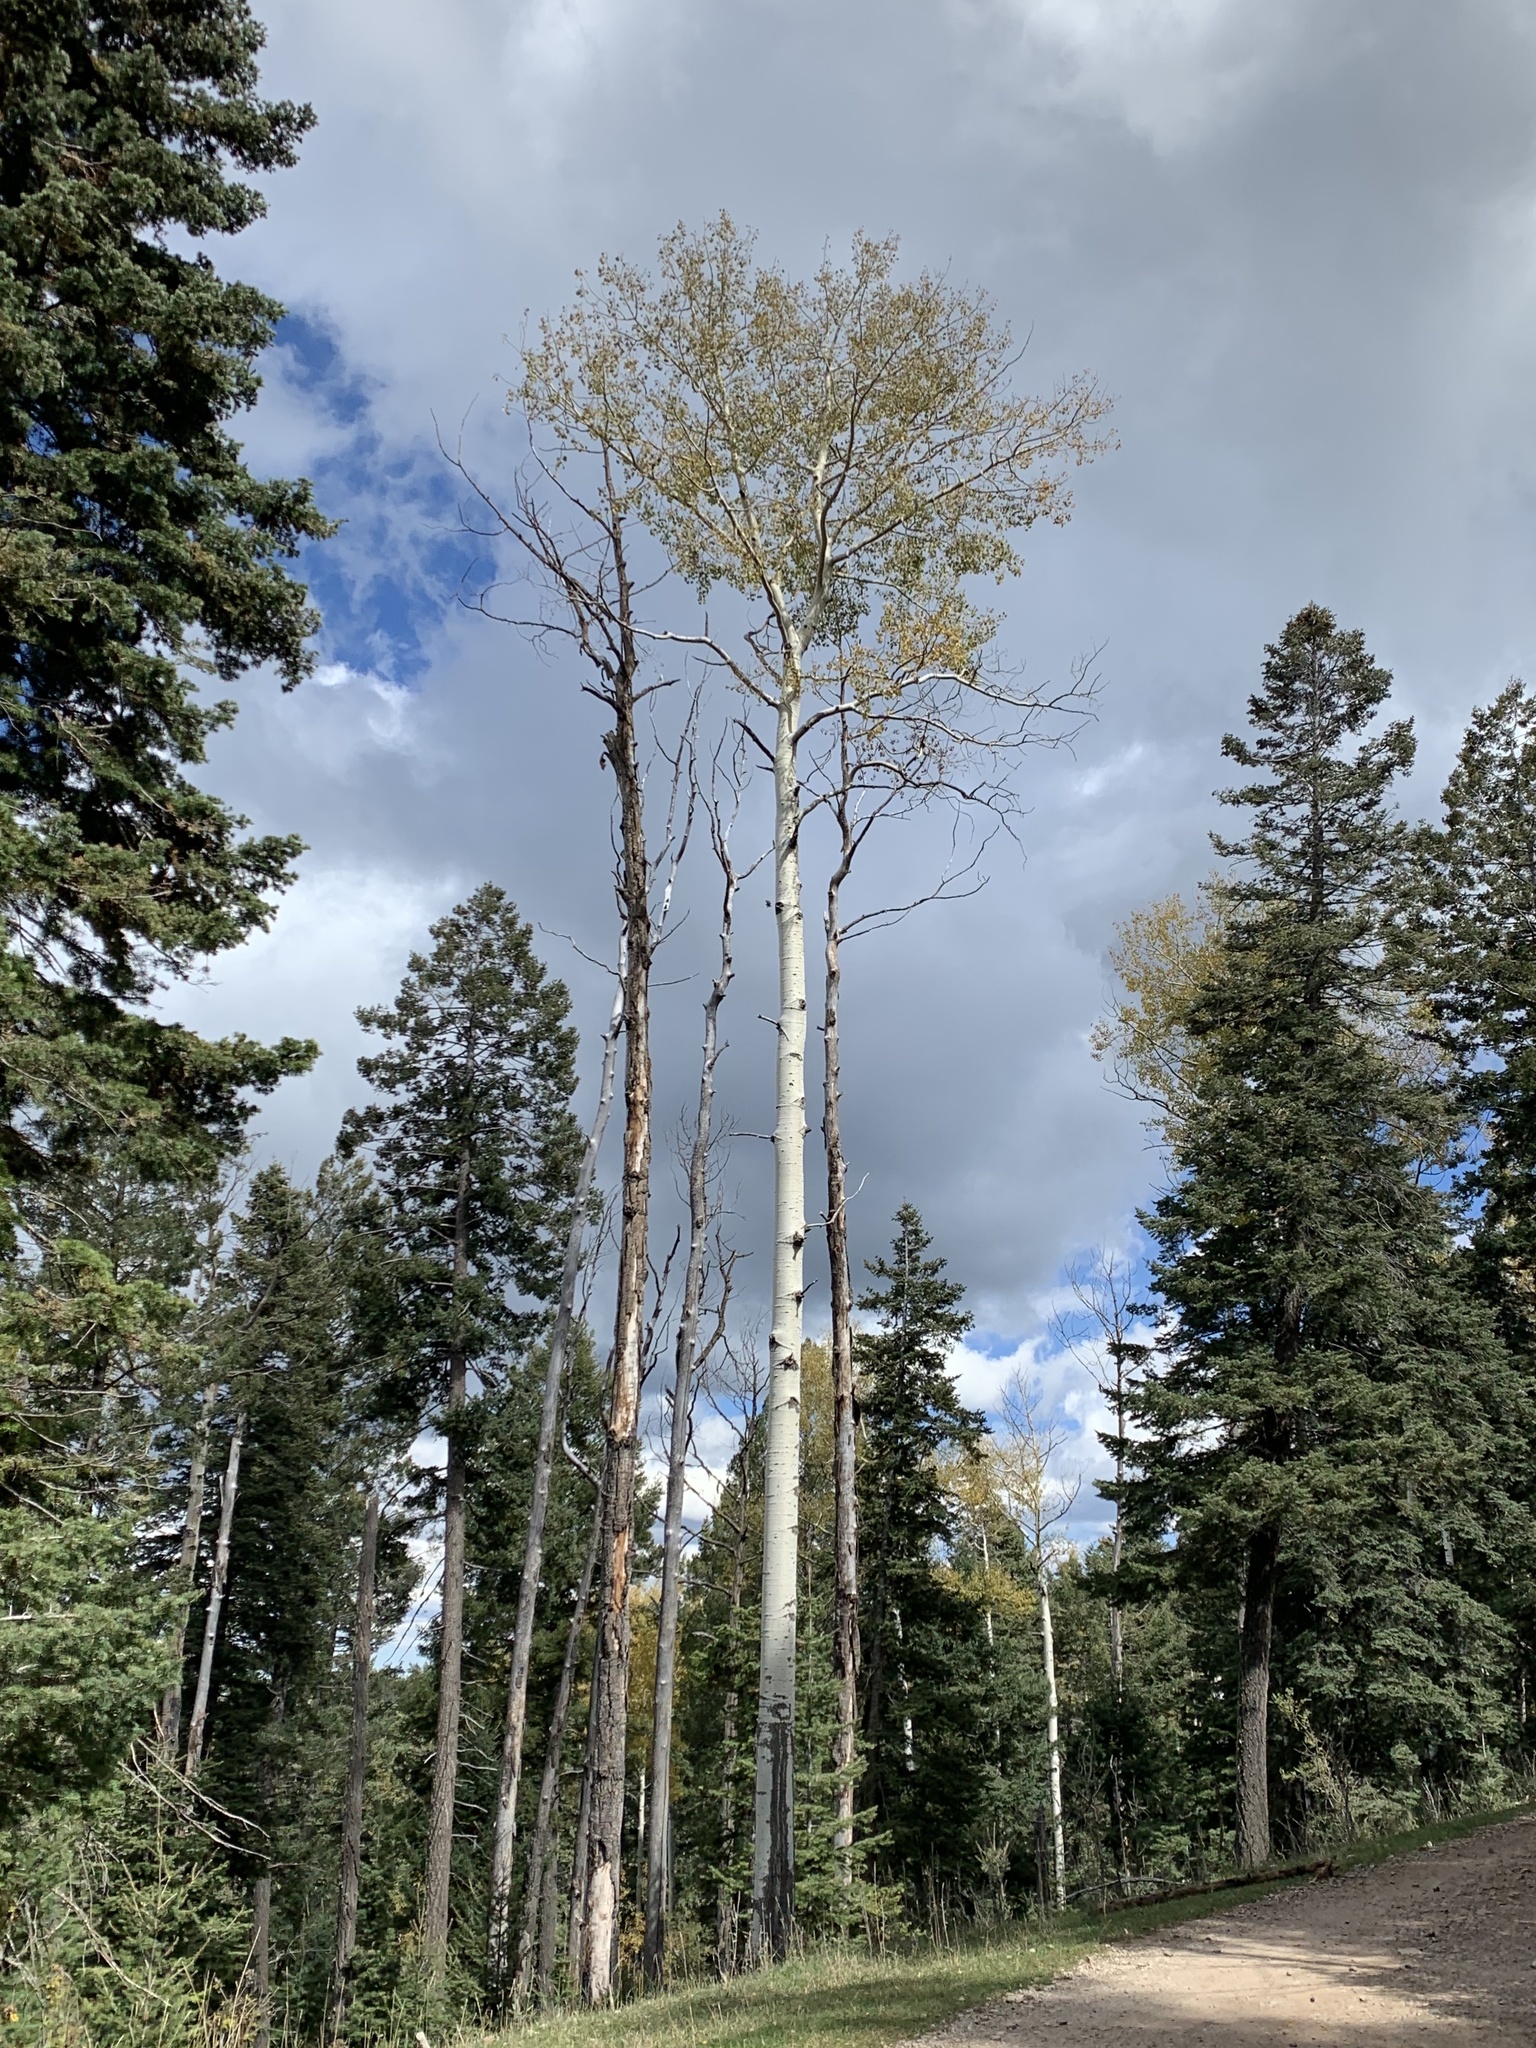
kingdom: Plantae
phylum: Tracheophyta
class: Magnoliopsida
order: Malpighiales
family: Salicaceae
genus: Populus
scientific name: Populus tremuloides
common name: Quaking aspen
